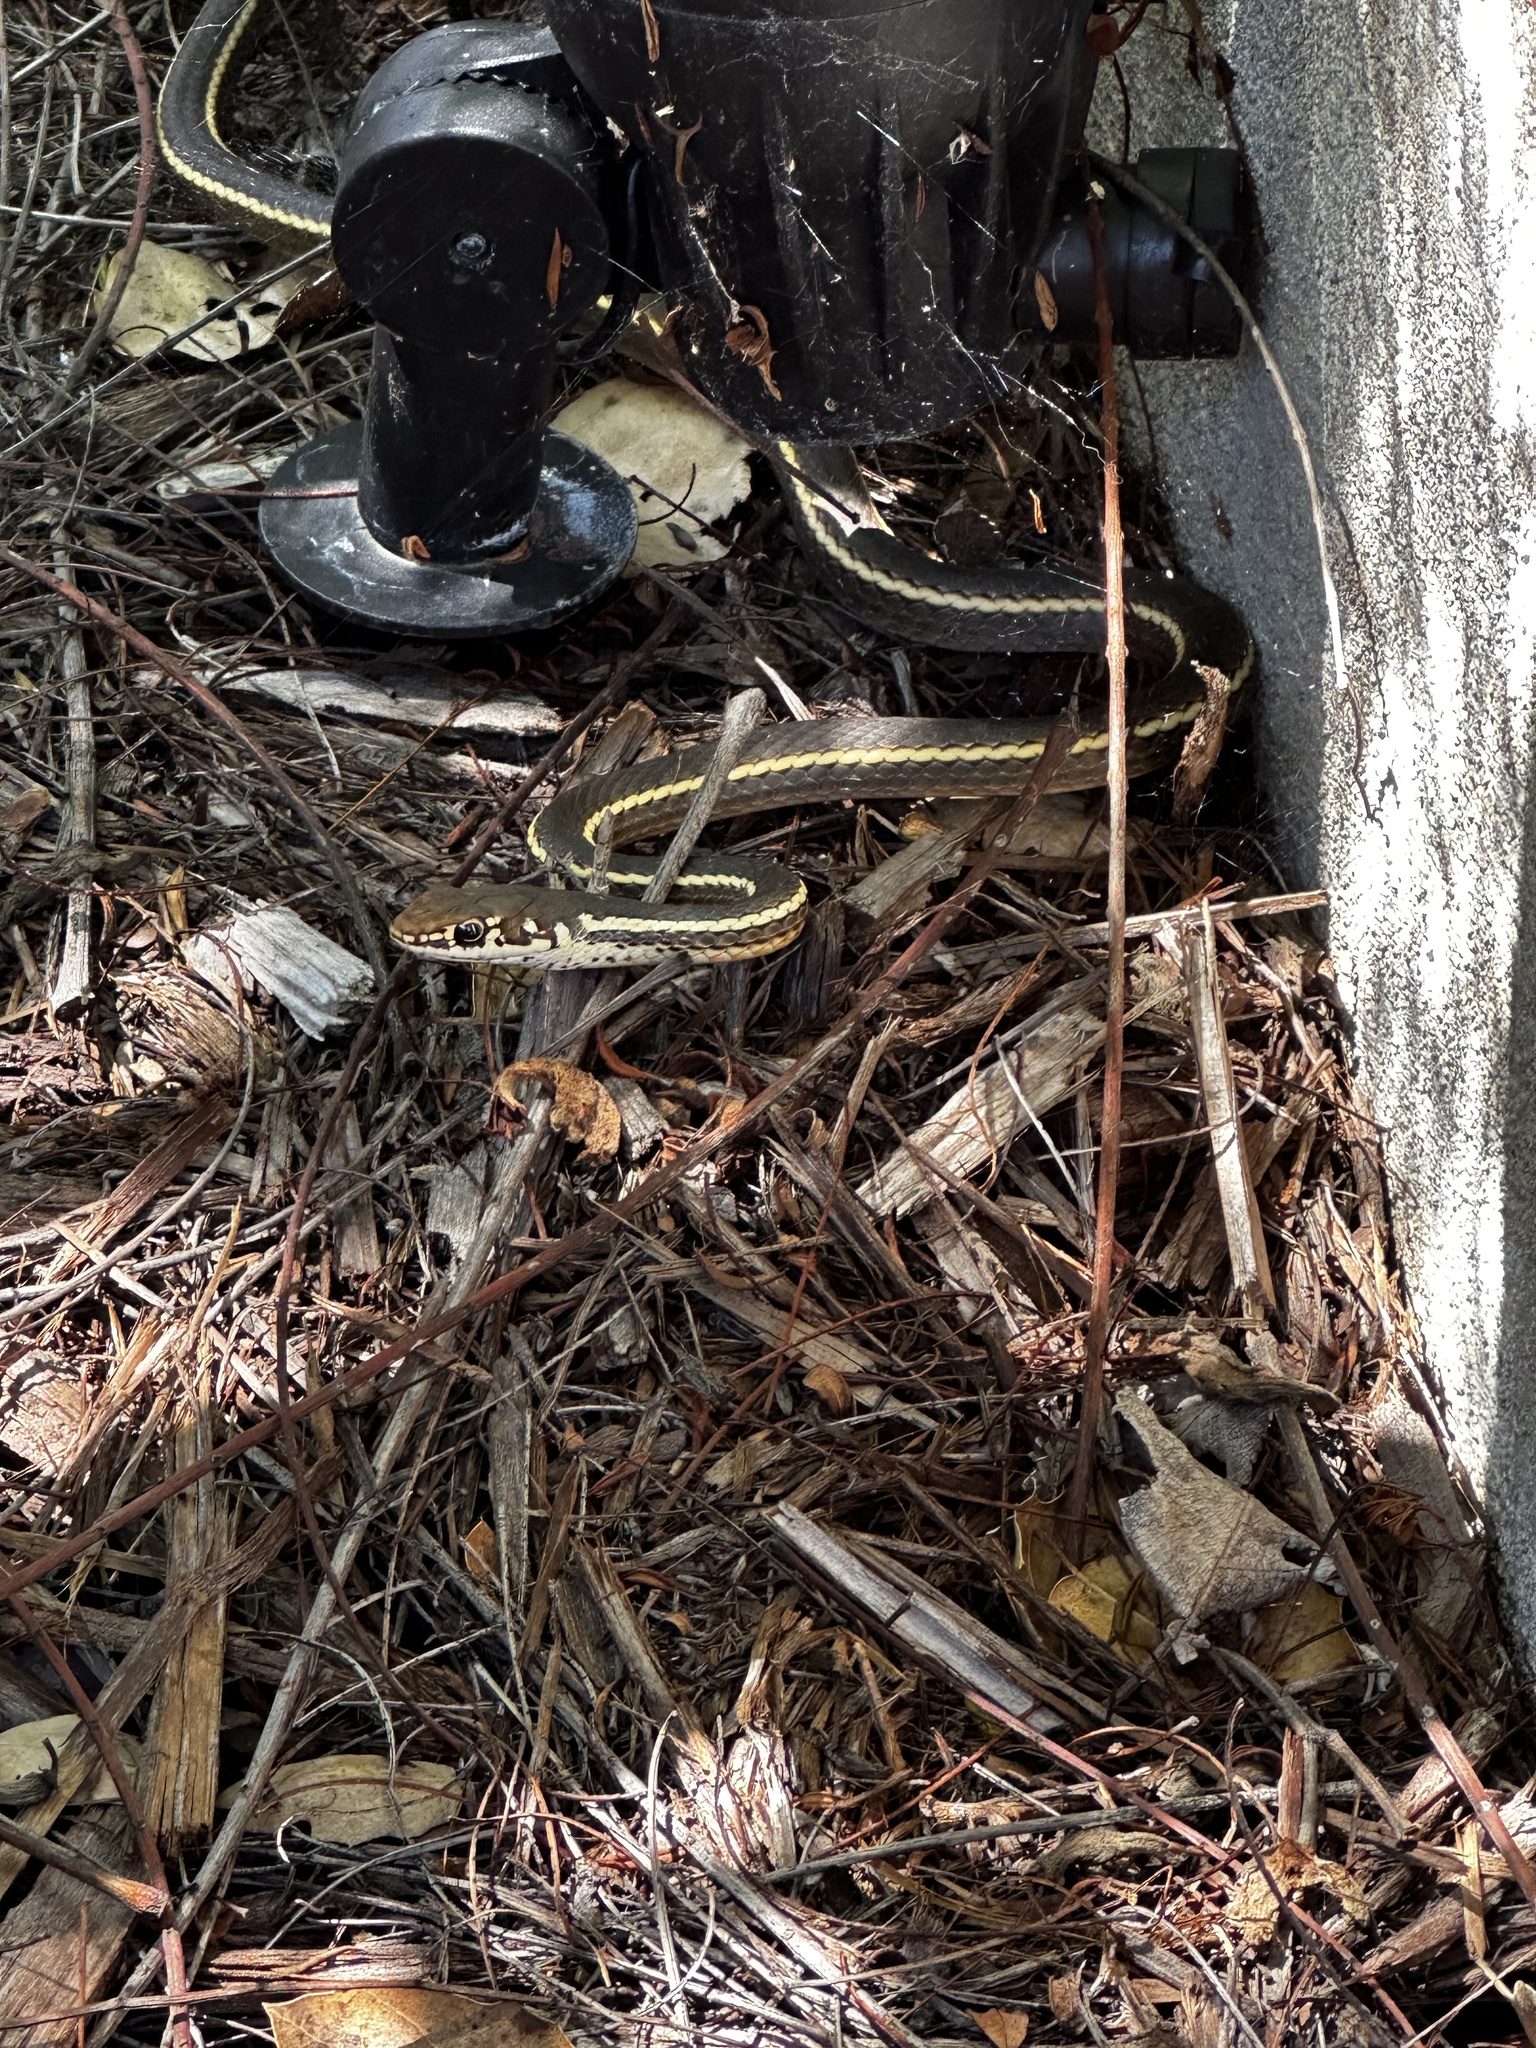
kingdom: Animalia
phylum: Chordata
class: Squamata
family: Colubridae
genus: Masticophis
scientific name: Masticophis lateralis
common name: Striped racer
